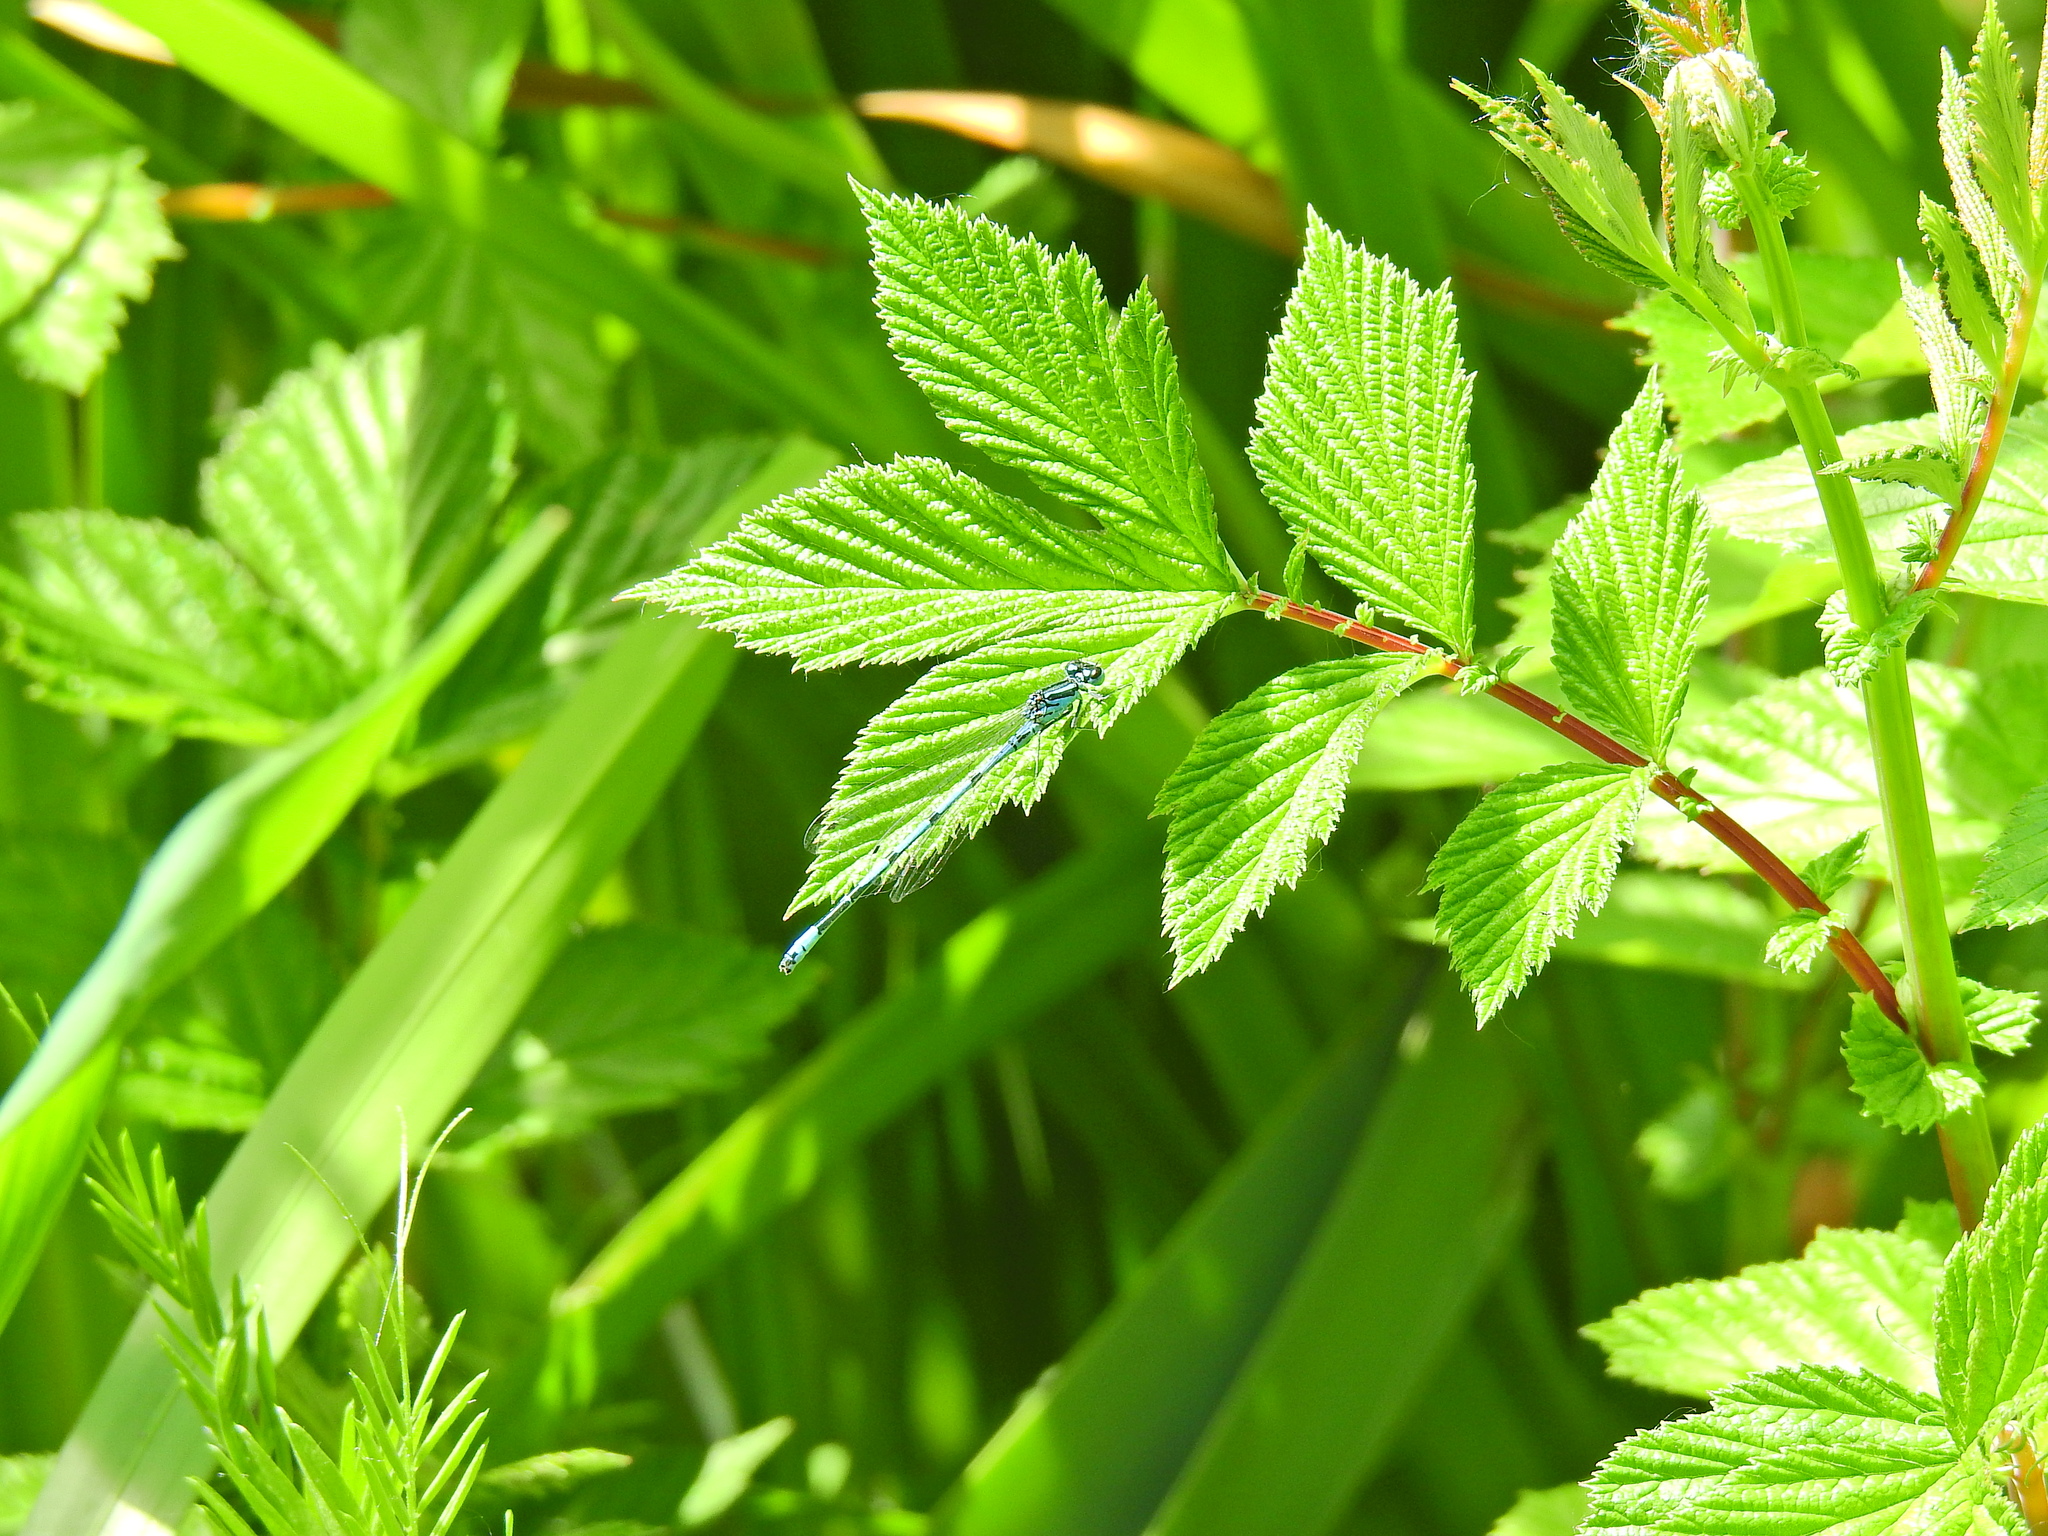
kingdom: Animalia
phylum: Arthropoda
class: Insecta
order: Odonata
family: Coenagrionidae
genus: Coenagrion
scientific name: Coenagrion puella
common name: Azure damselfly
